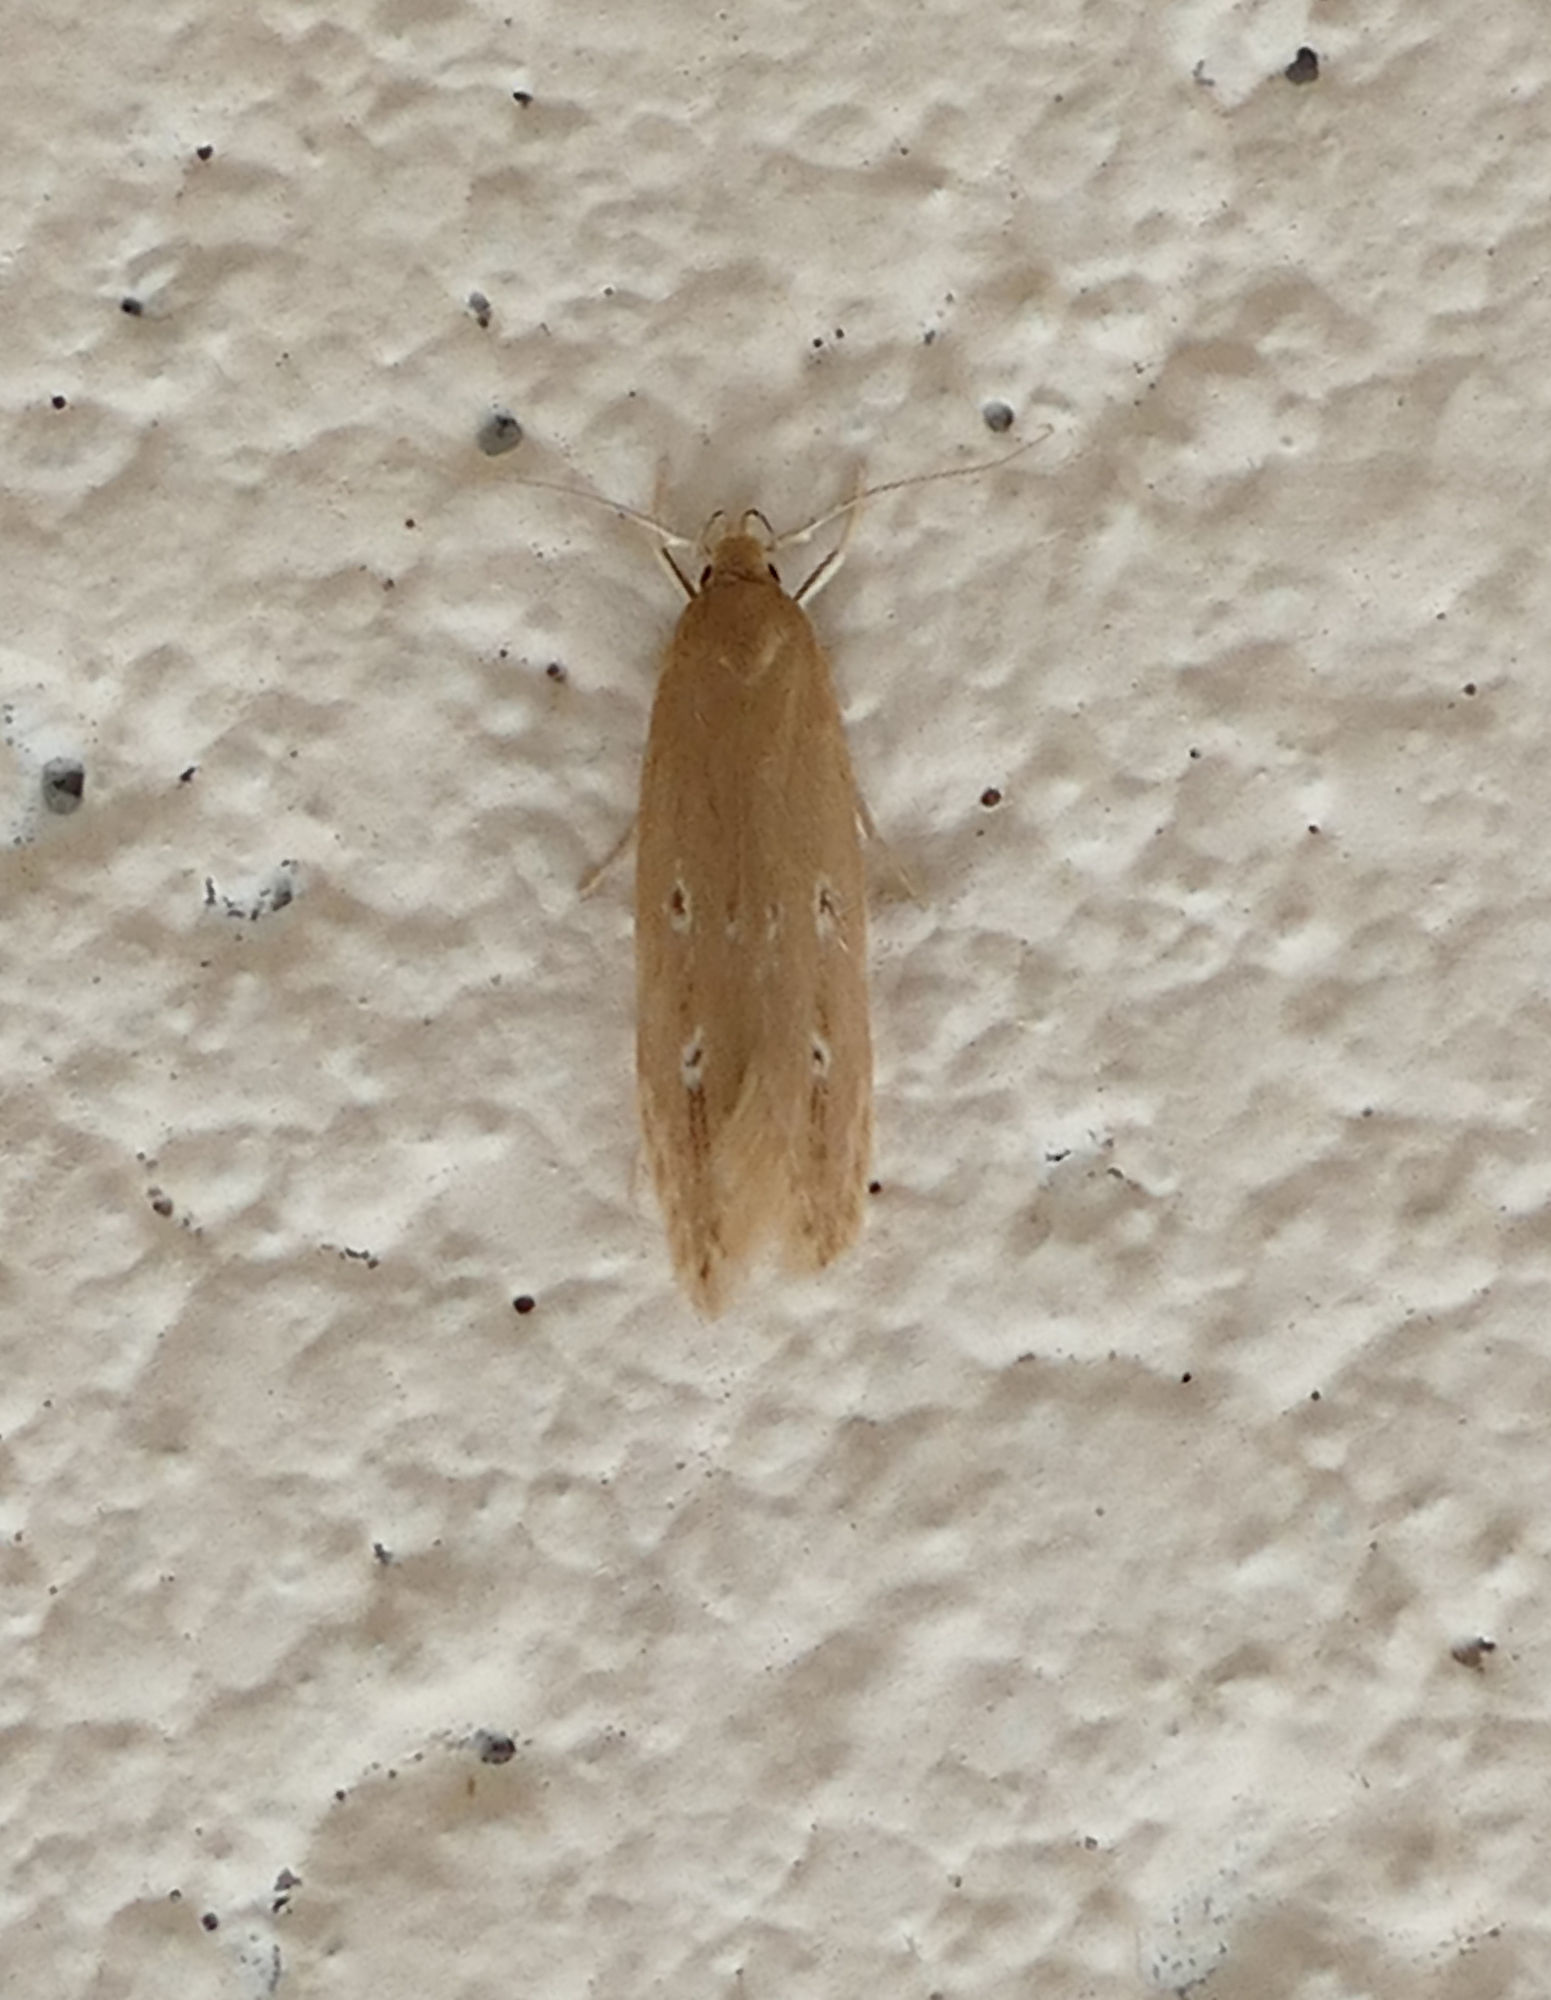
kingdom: Animalia
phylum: Arthropoda
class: Insecta
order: Lepidoptera
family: Cosmopterigidae
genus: Limnaecia
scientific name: Limnaecia phragmitella
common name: Bulrush cosmet
